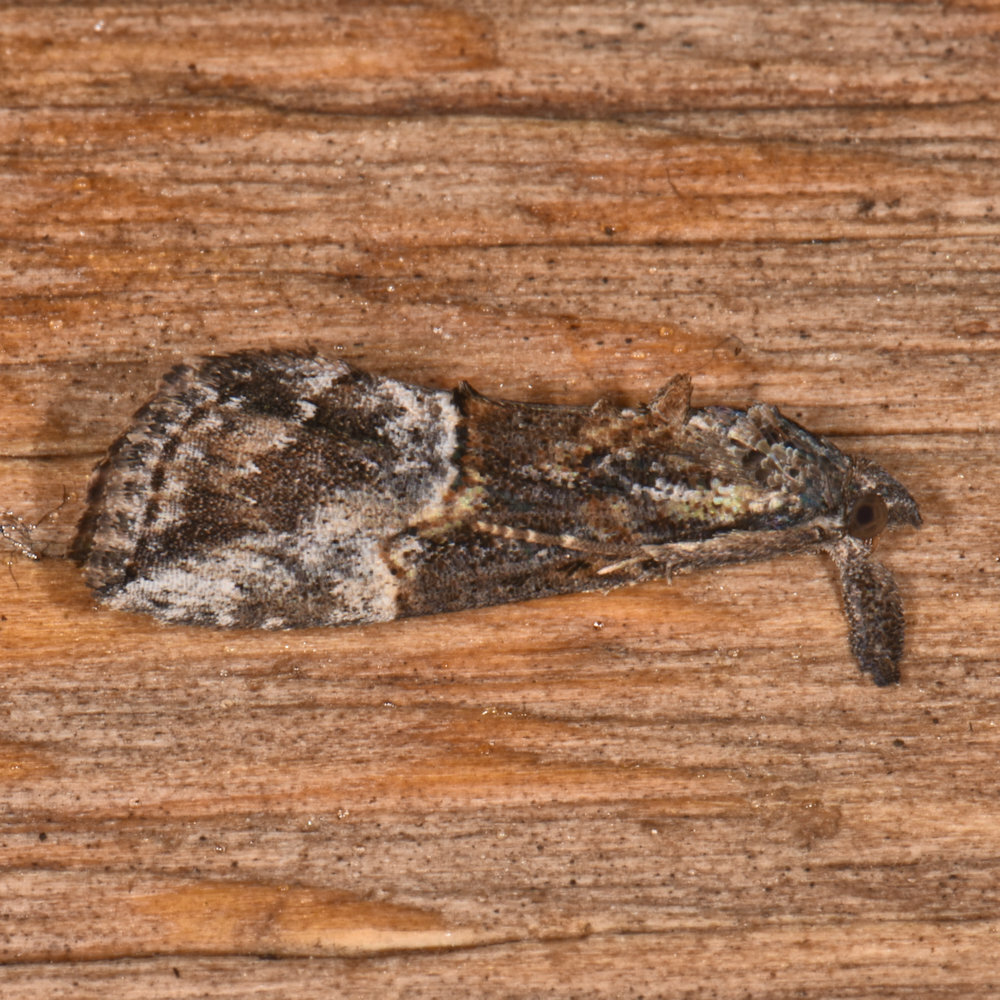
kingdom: Animalia
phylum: Arthropoda
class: Insecta
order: Lepidoptera
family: Erebidae
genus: Hypena
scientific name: Hypena scabra
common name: Green cloverworm
